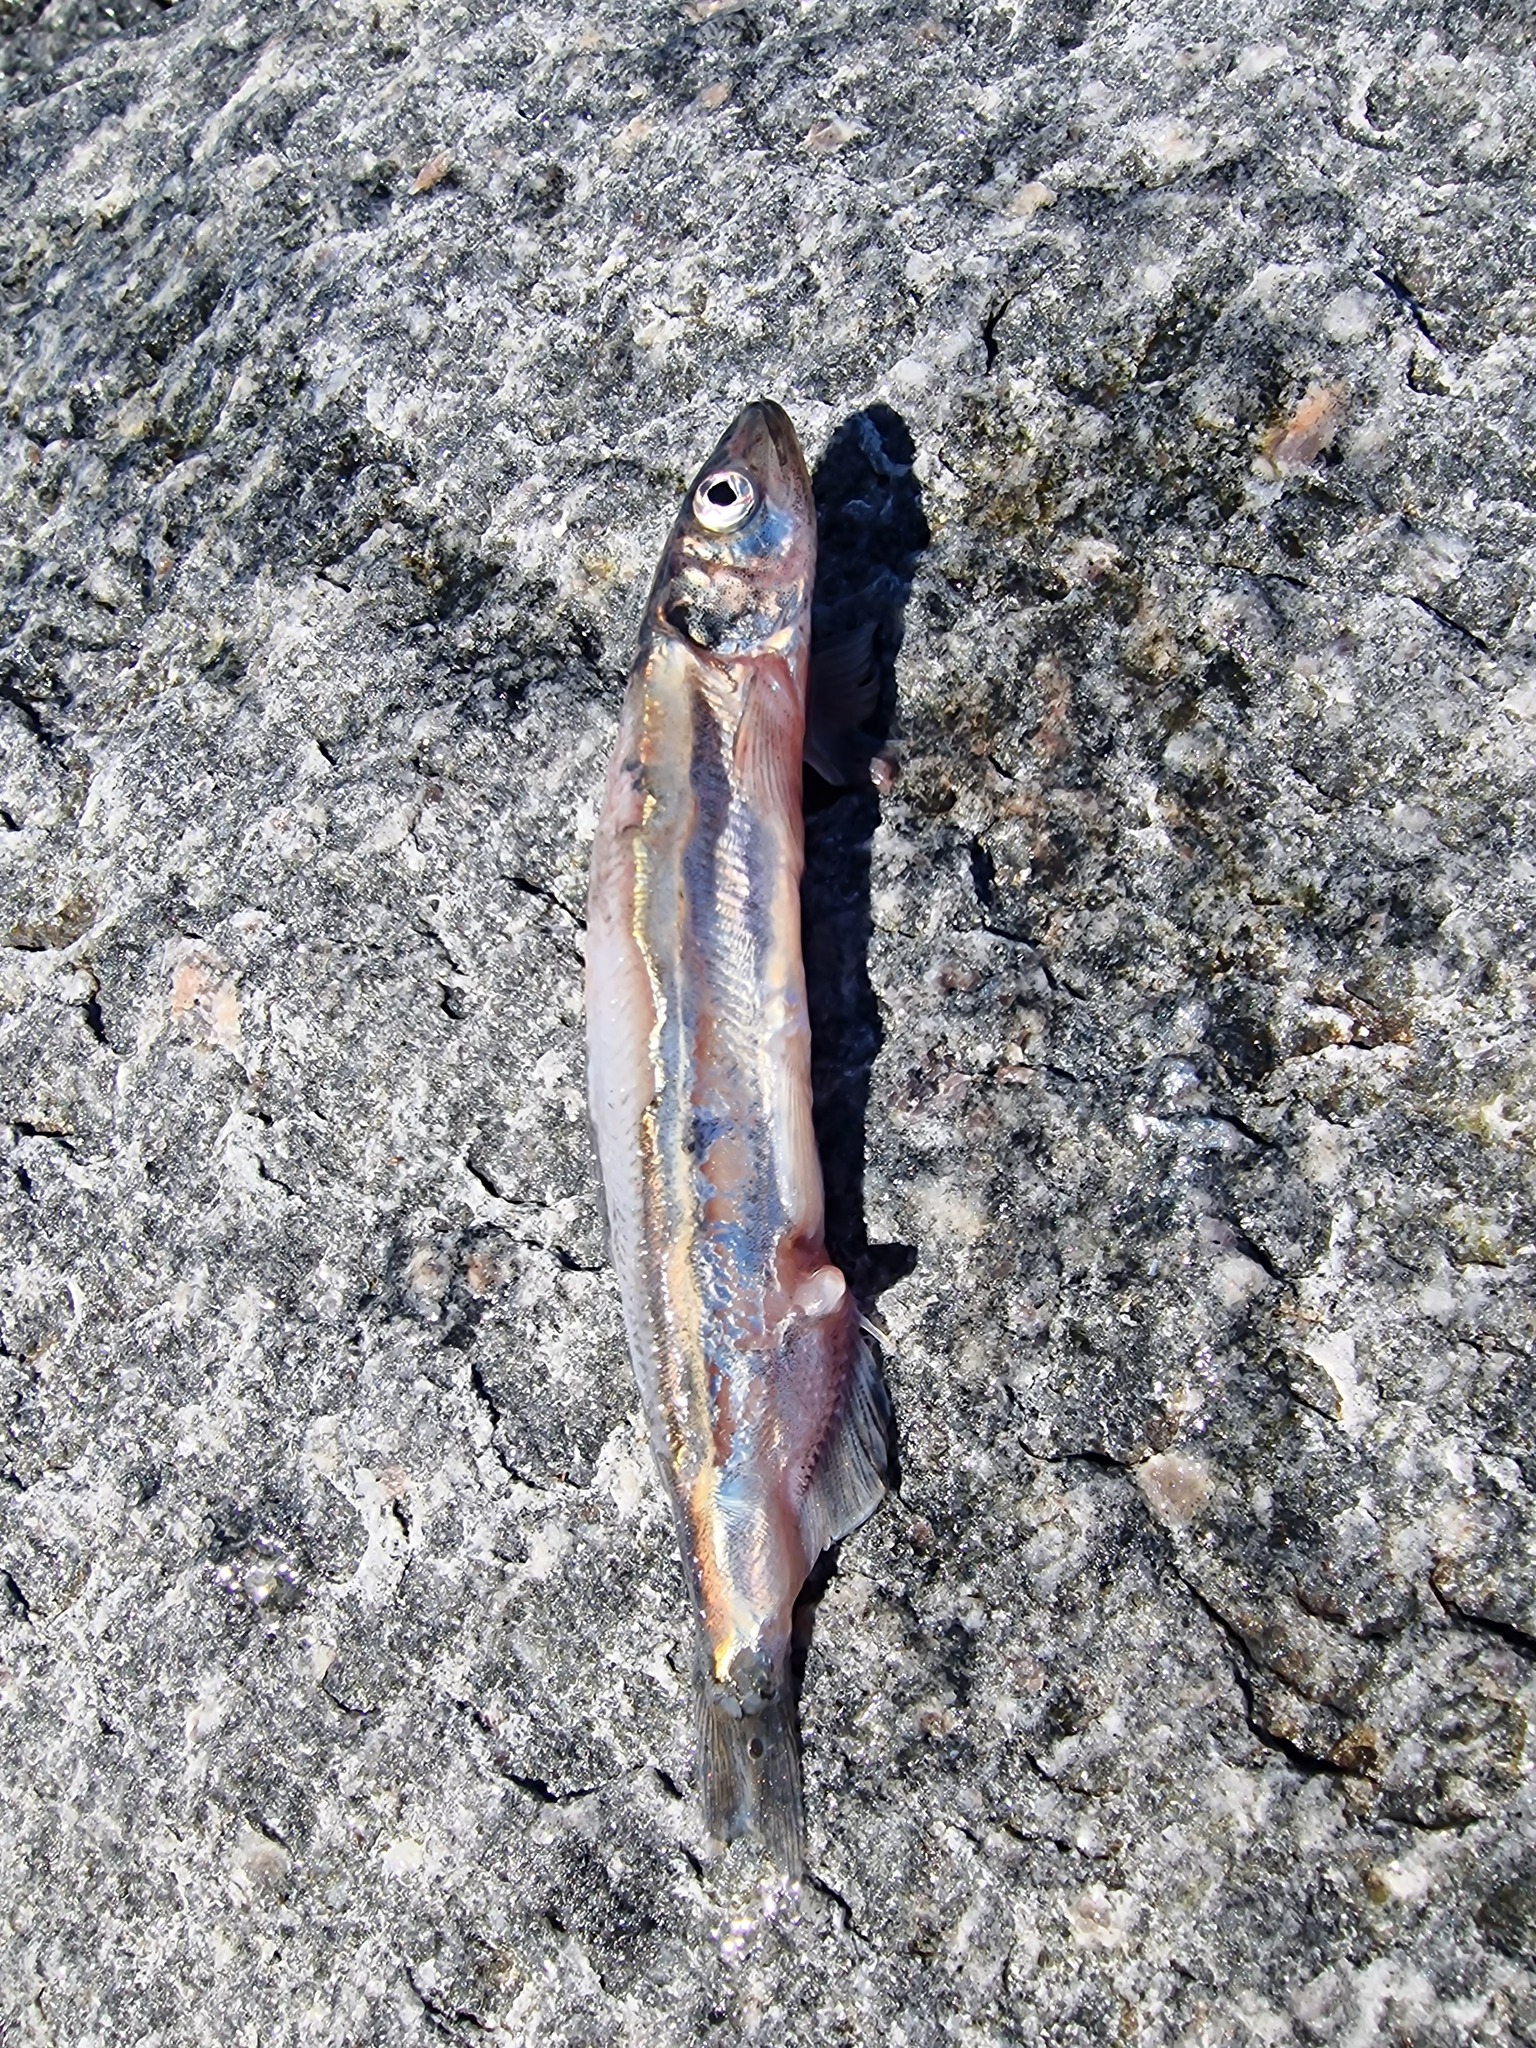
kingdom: Animalia
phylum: Chordata
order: Osmeriformes
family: Osmeridae
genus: Mallotus
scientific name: Mallotus villosus
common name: Capelin
